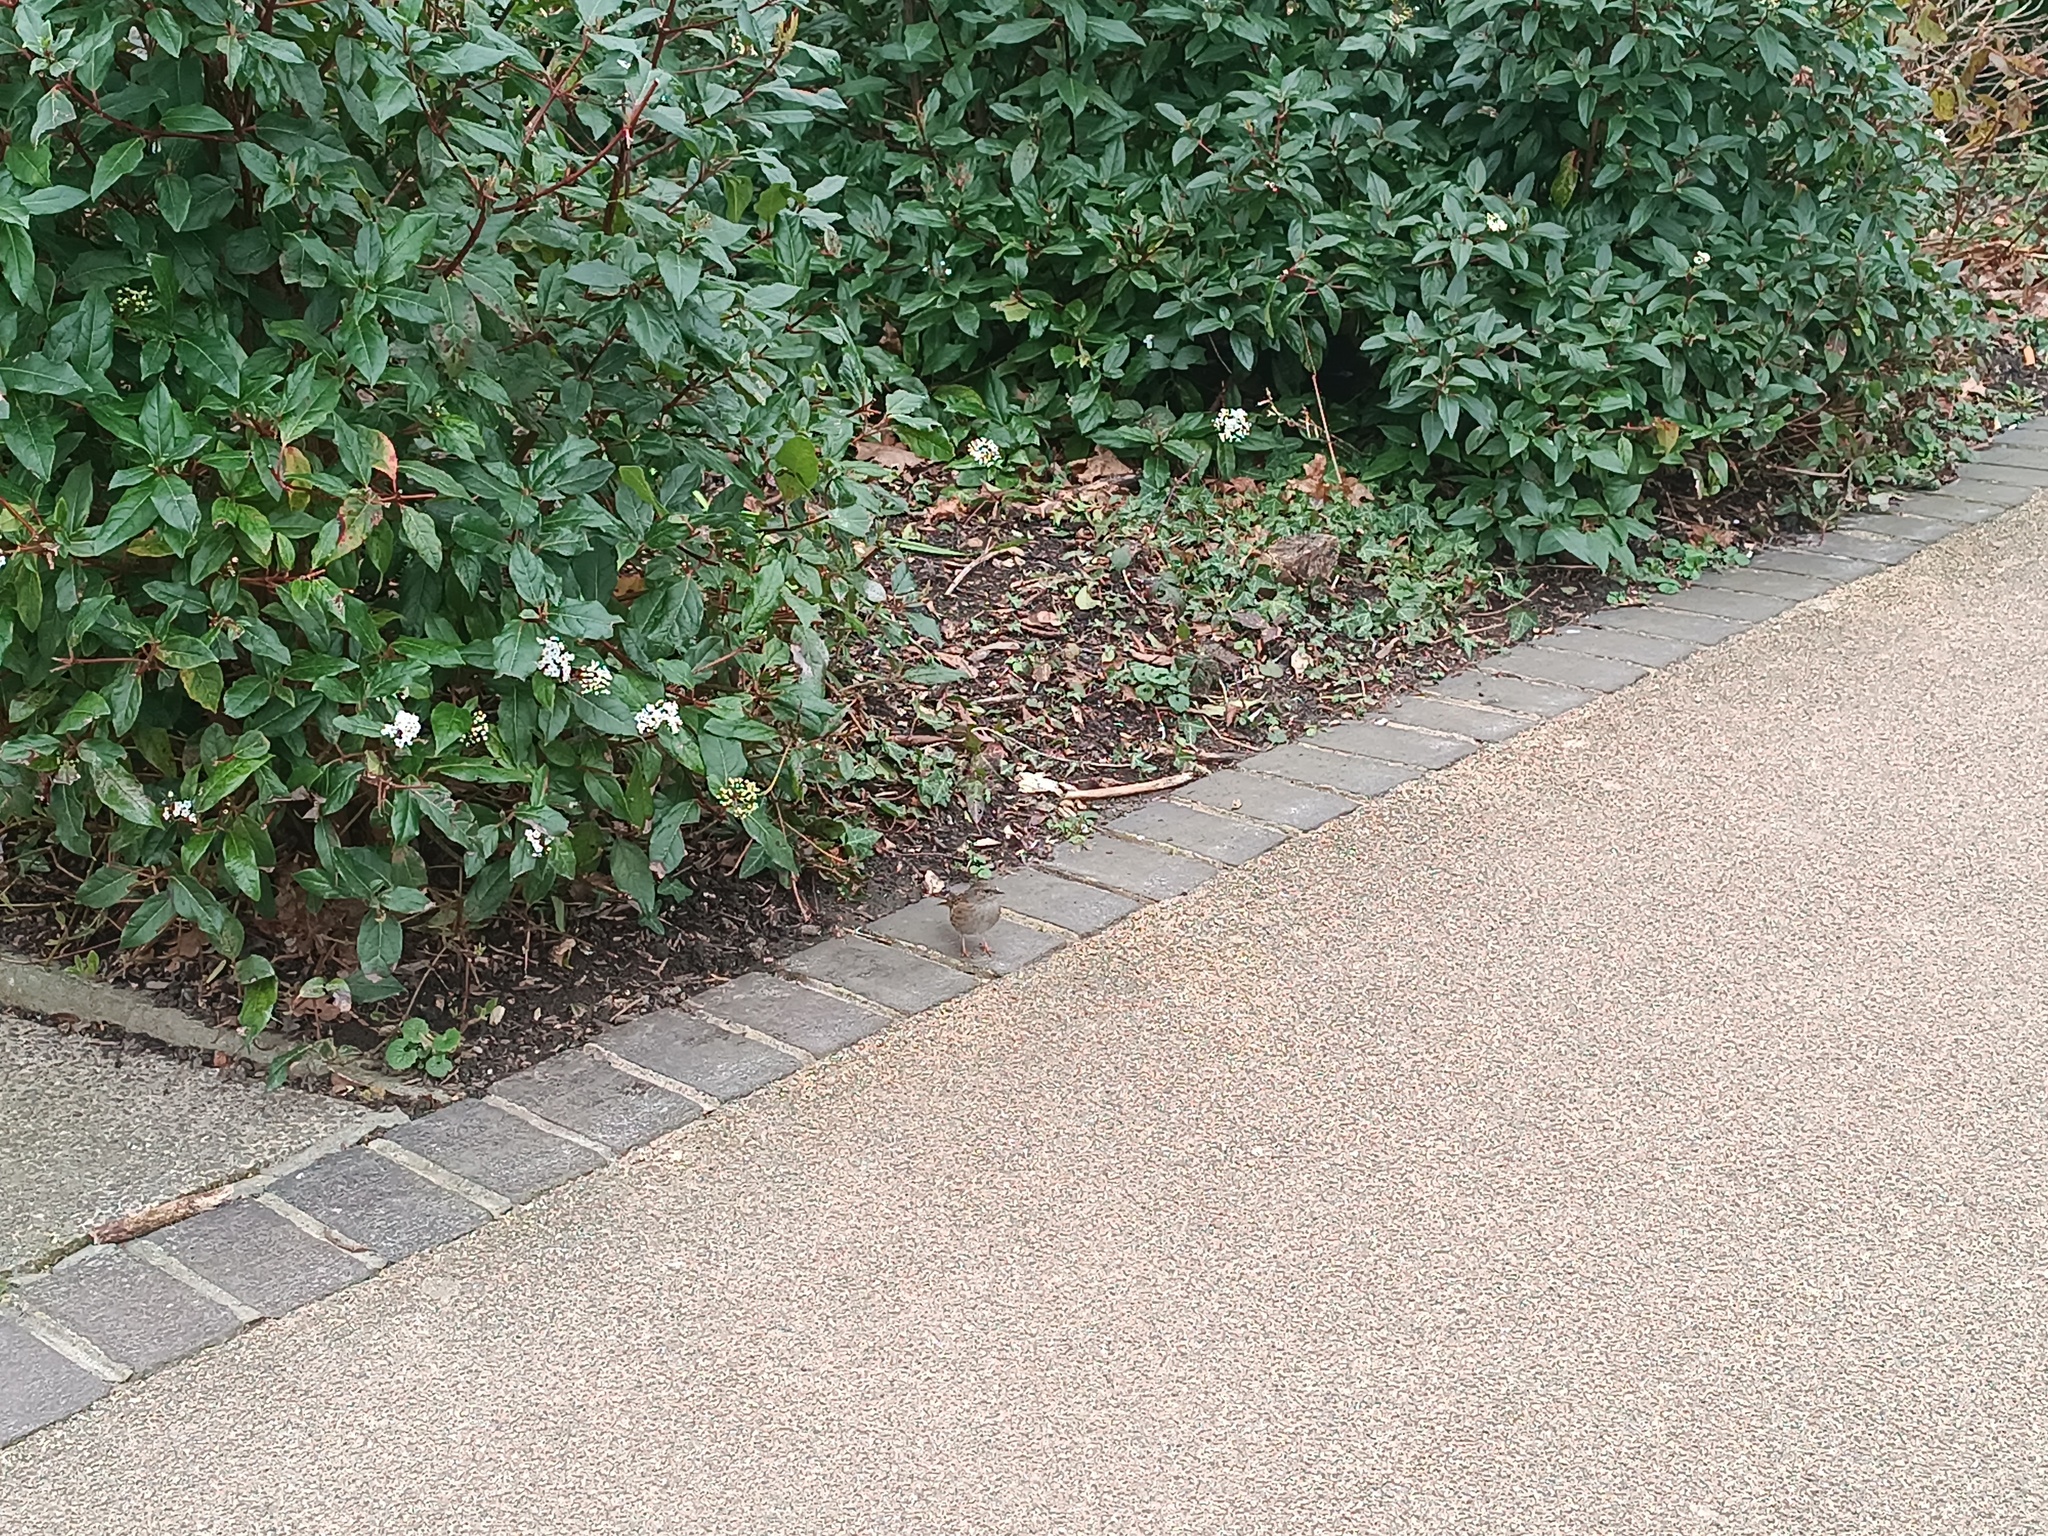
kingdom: Animalia
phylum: Chordata
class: Aves
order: Passeriformes
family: Prunellidae
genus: Prunella
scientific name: Prunella modularis
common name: Dunnock
